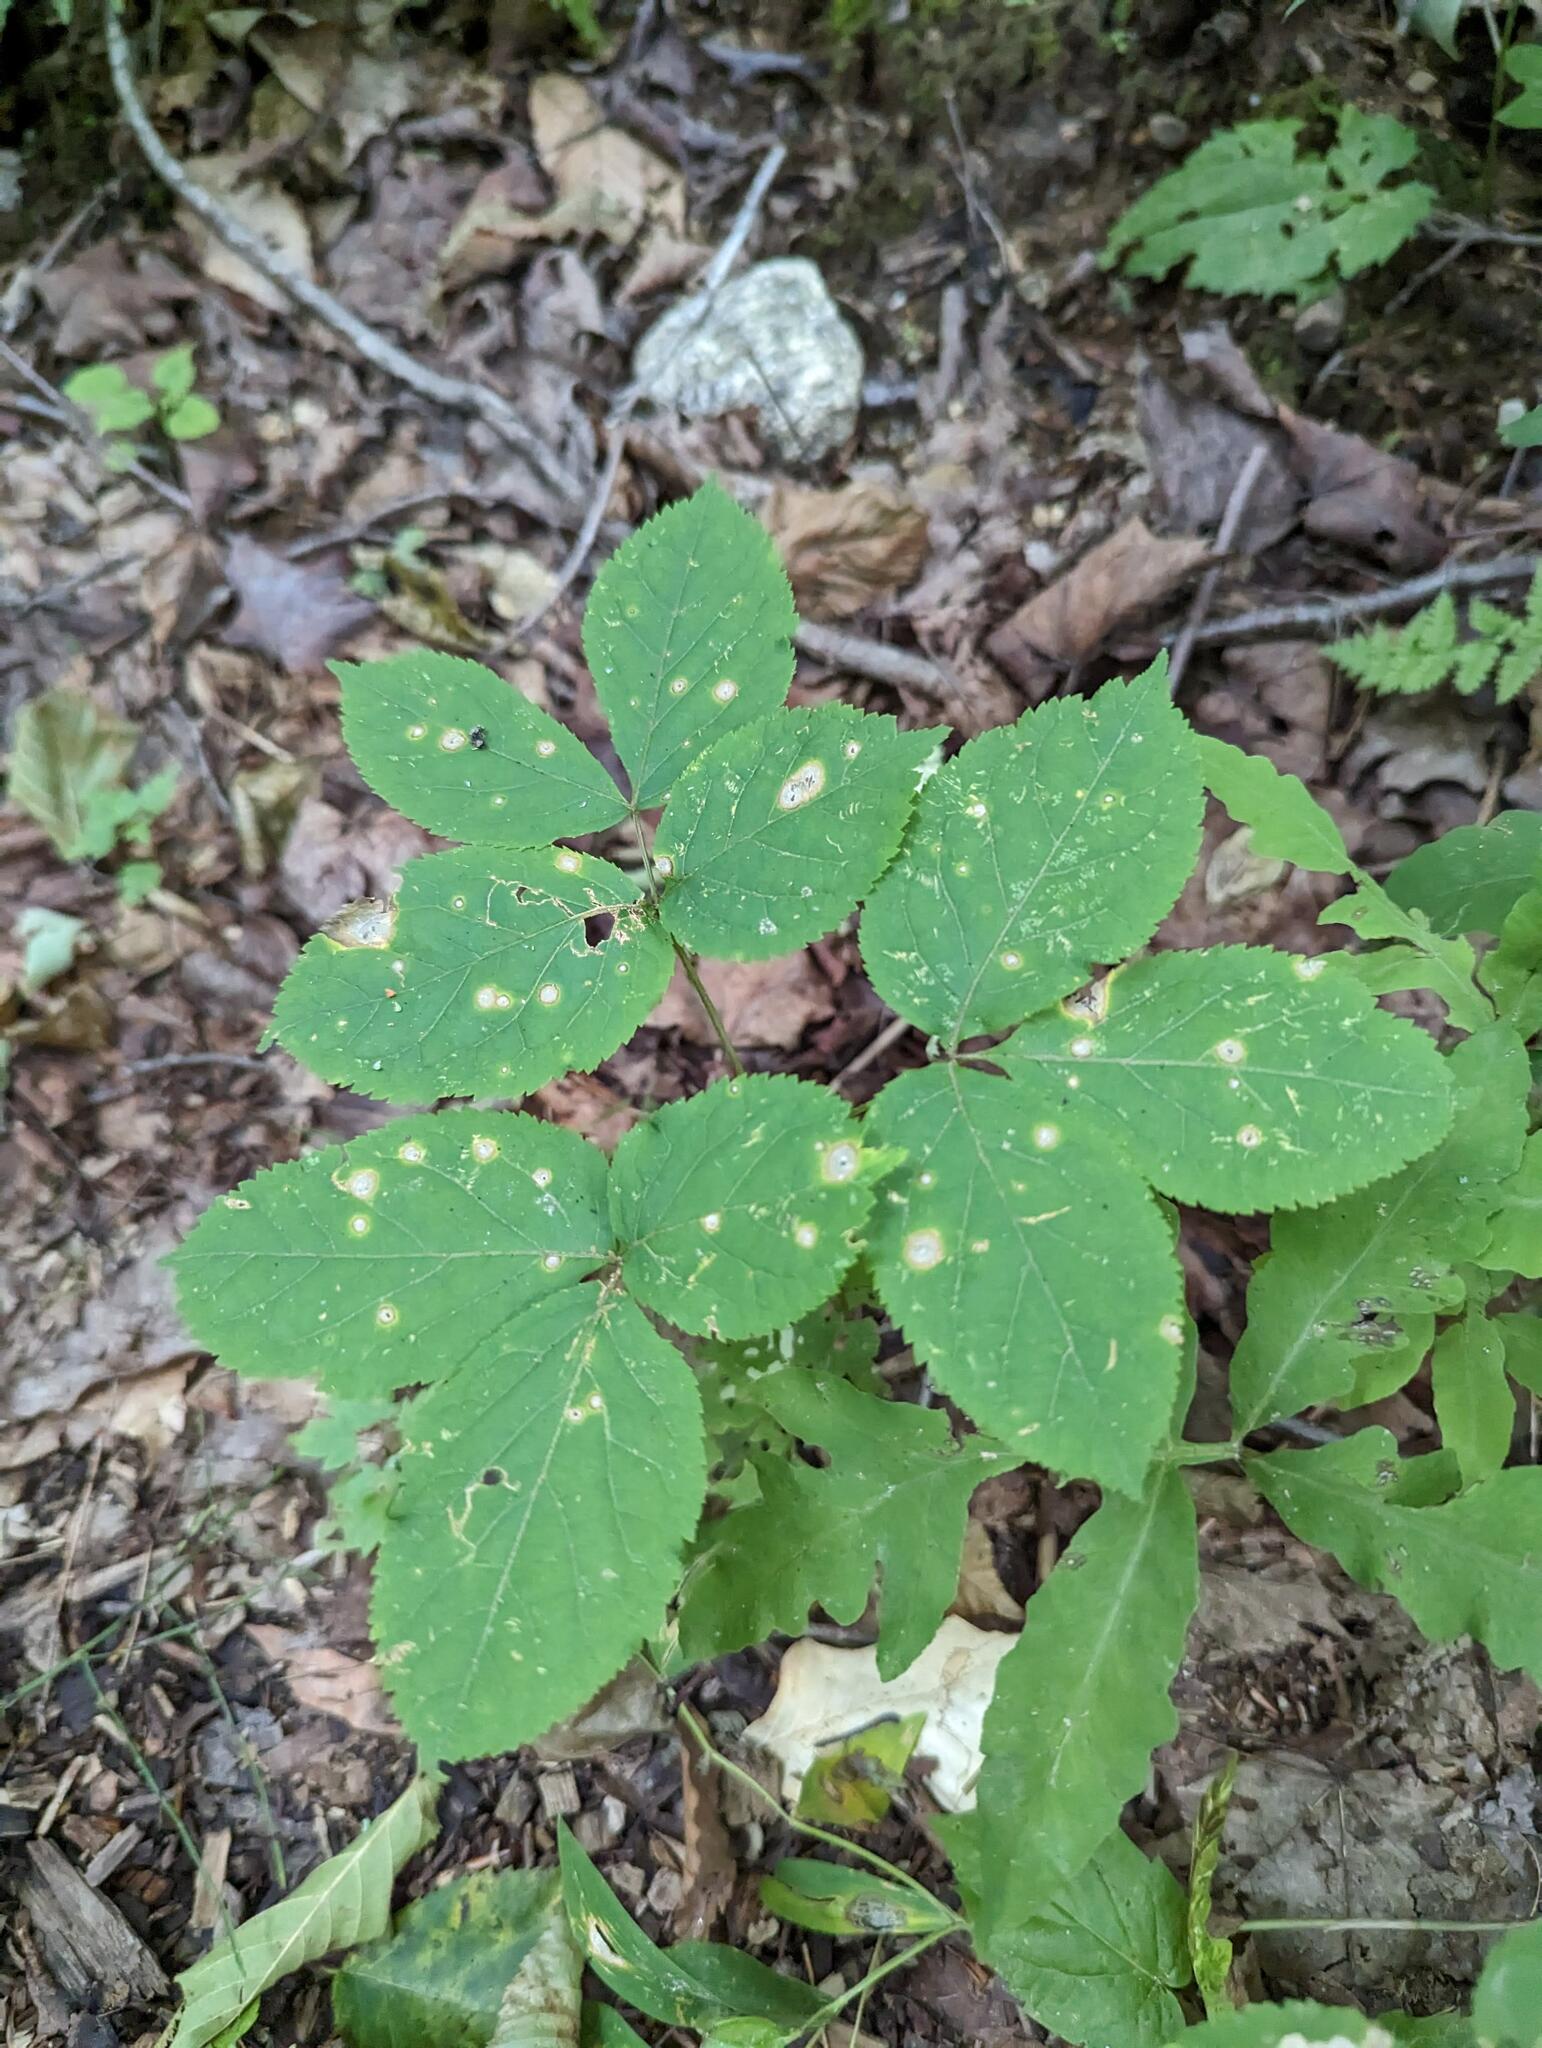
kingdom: Plantae
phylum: Tracheophyta
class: Magnoliopsida
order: Apiales
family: Araliaceae
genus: Aralia
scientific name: Aralia nudicaulis
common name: Wild sarsaparilla
